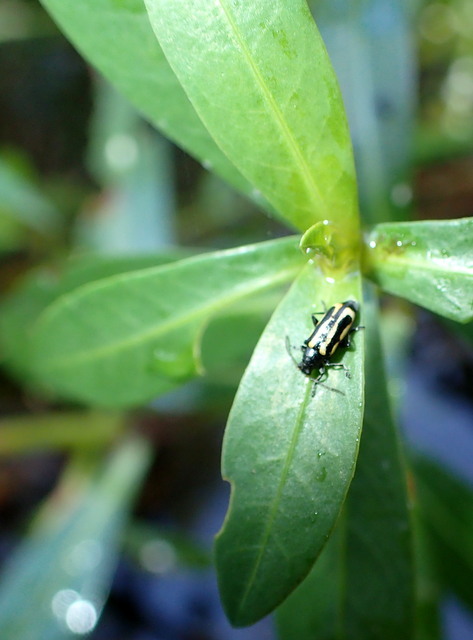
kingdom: Animalia
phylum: Arthropoda
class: Insecta
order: Coleoptera
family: Chrysomelidae
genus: Agasicles
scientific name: Agasicles hygrophila
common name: Alligatorweed flea beetle
